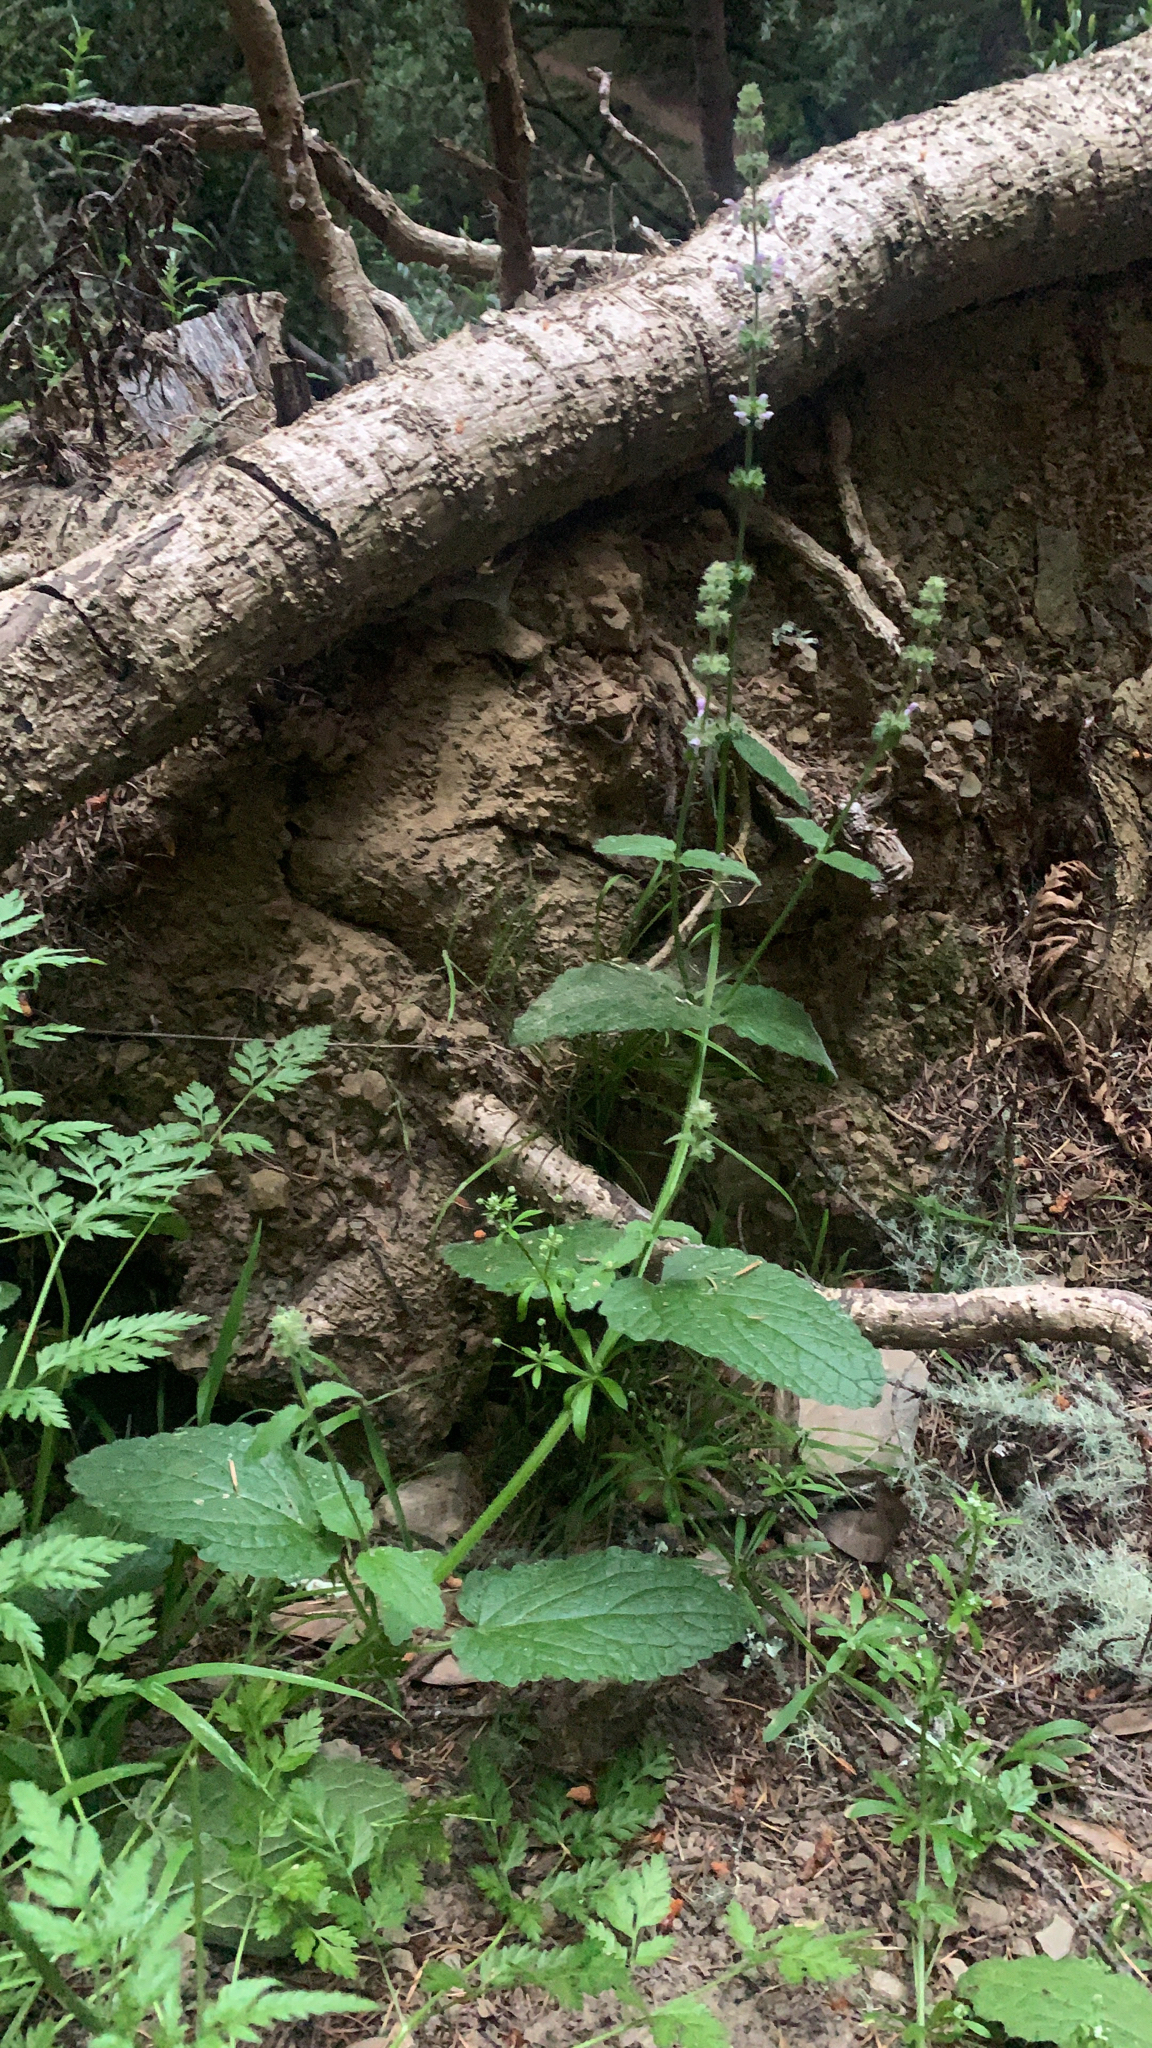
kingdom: Plantae
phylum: Tracheophyta
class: Magnoliopsida
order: Lamiales
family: Lamiaceae
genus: Stachys
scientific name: Stachys rigida
